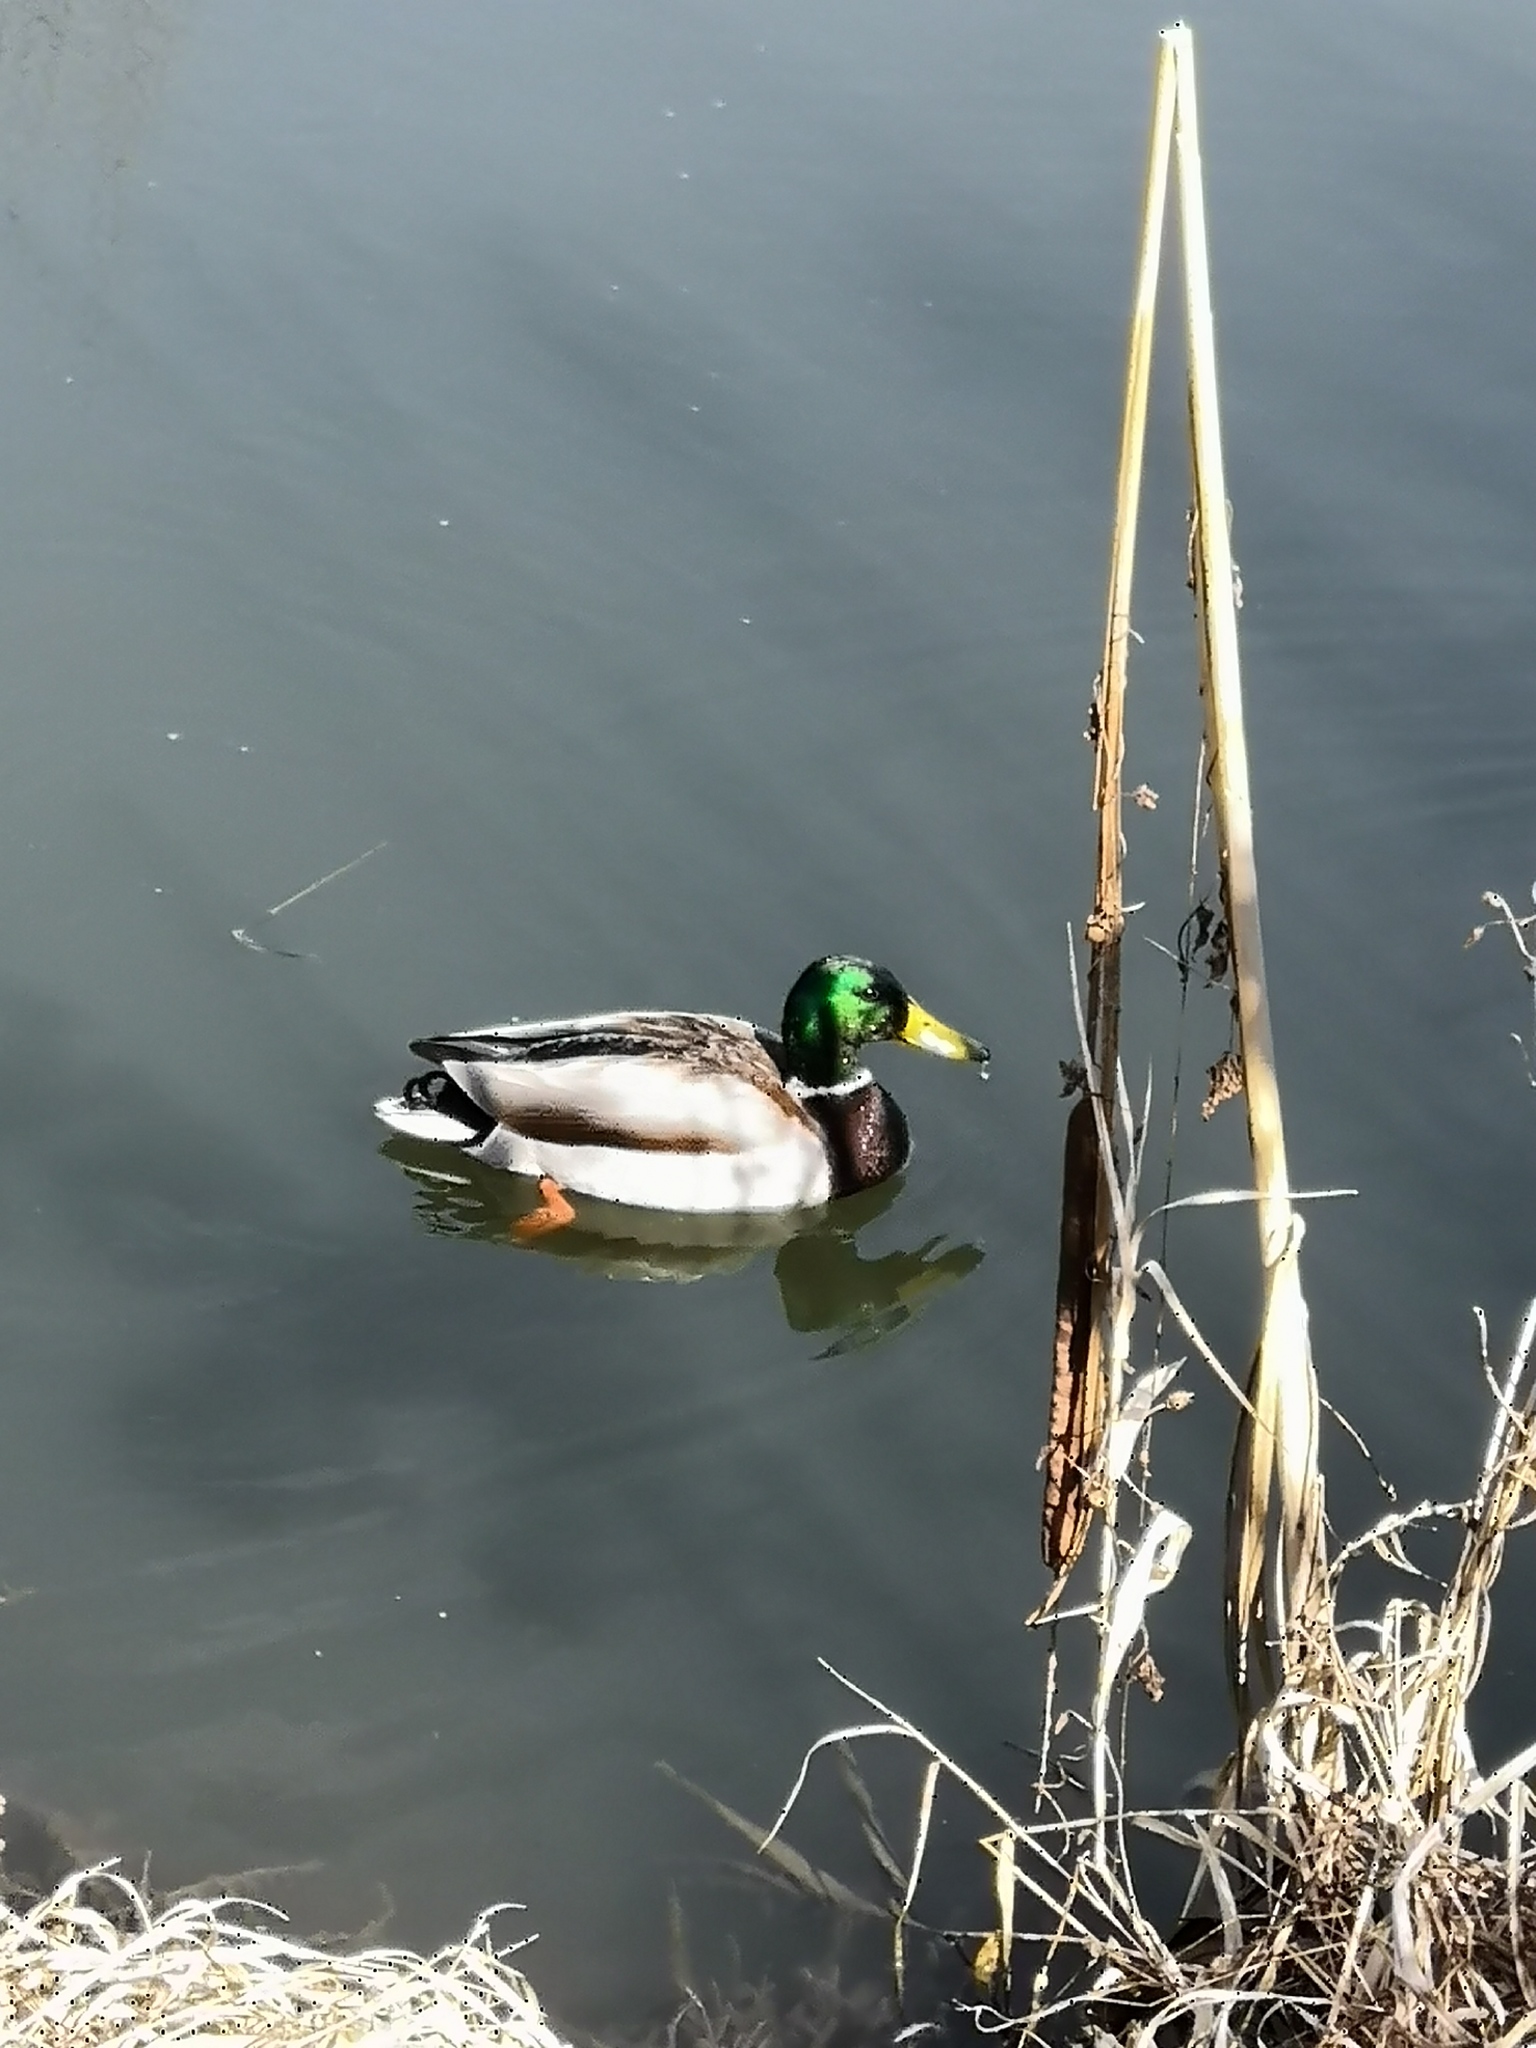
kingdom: Animalia
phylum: Chordata
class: Aves
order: Anseriformes
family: Anatidae
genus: Anas
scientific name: Anas platyrhynchos
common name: Mallard
